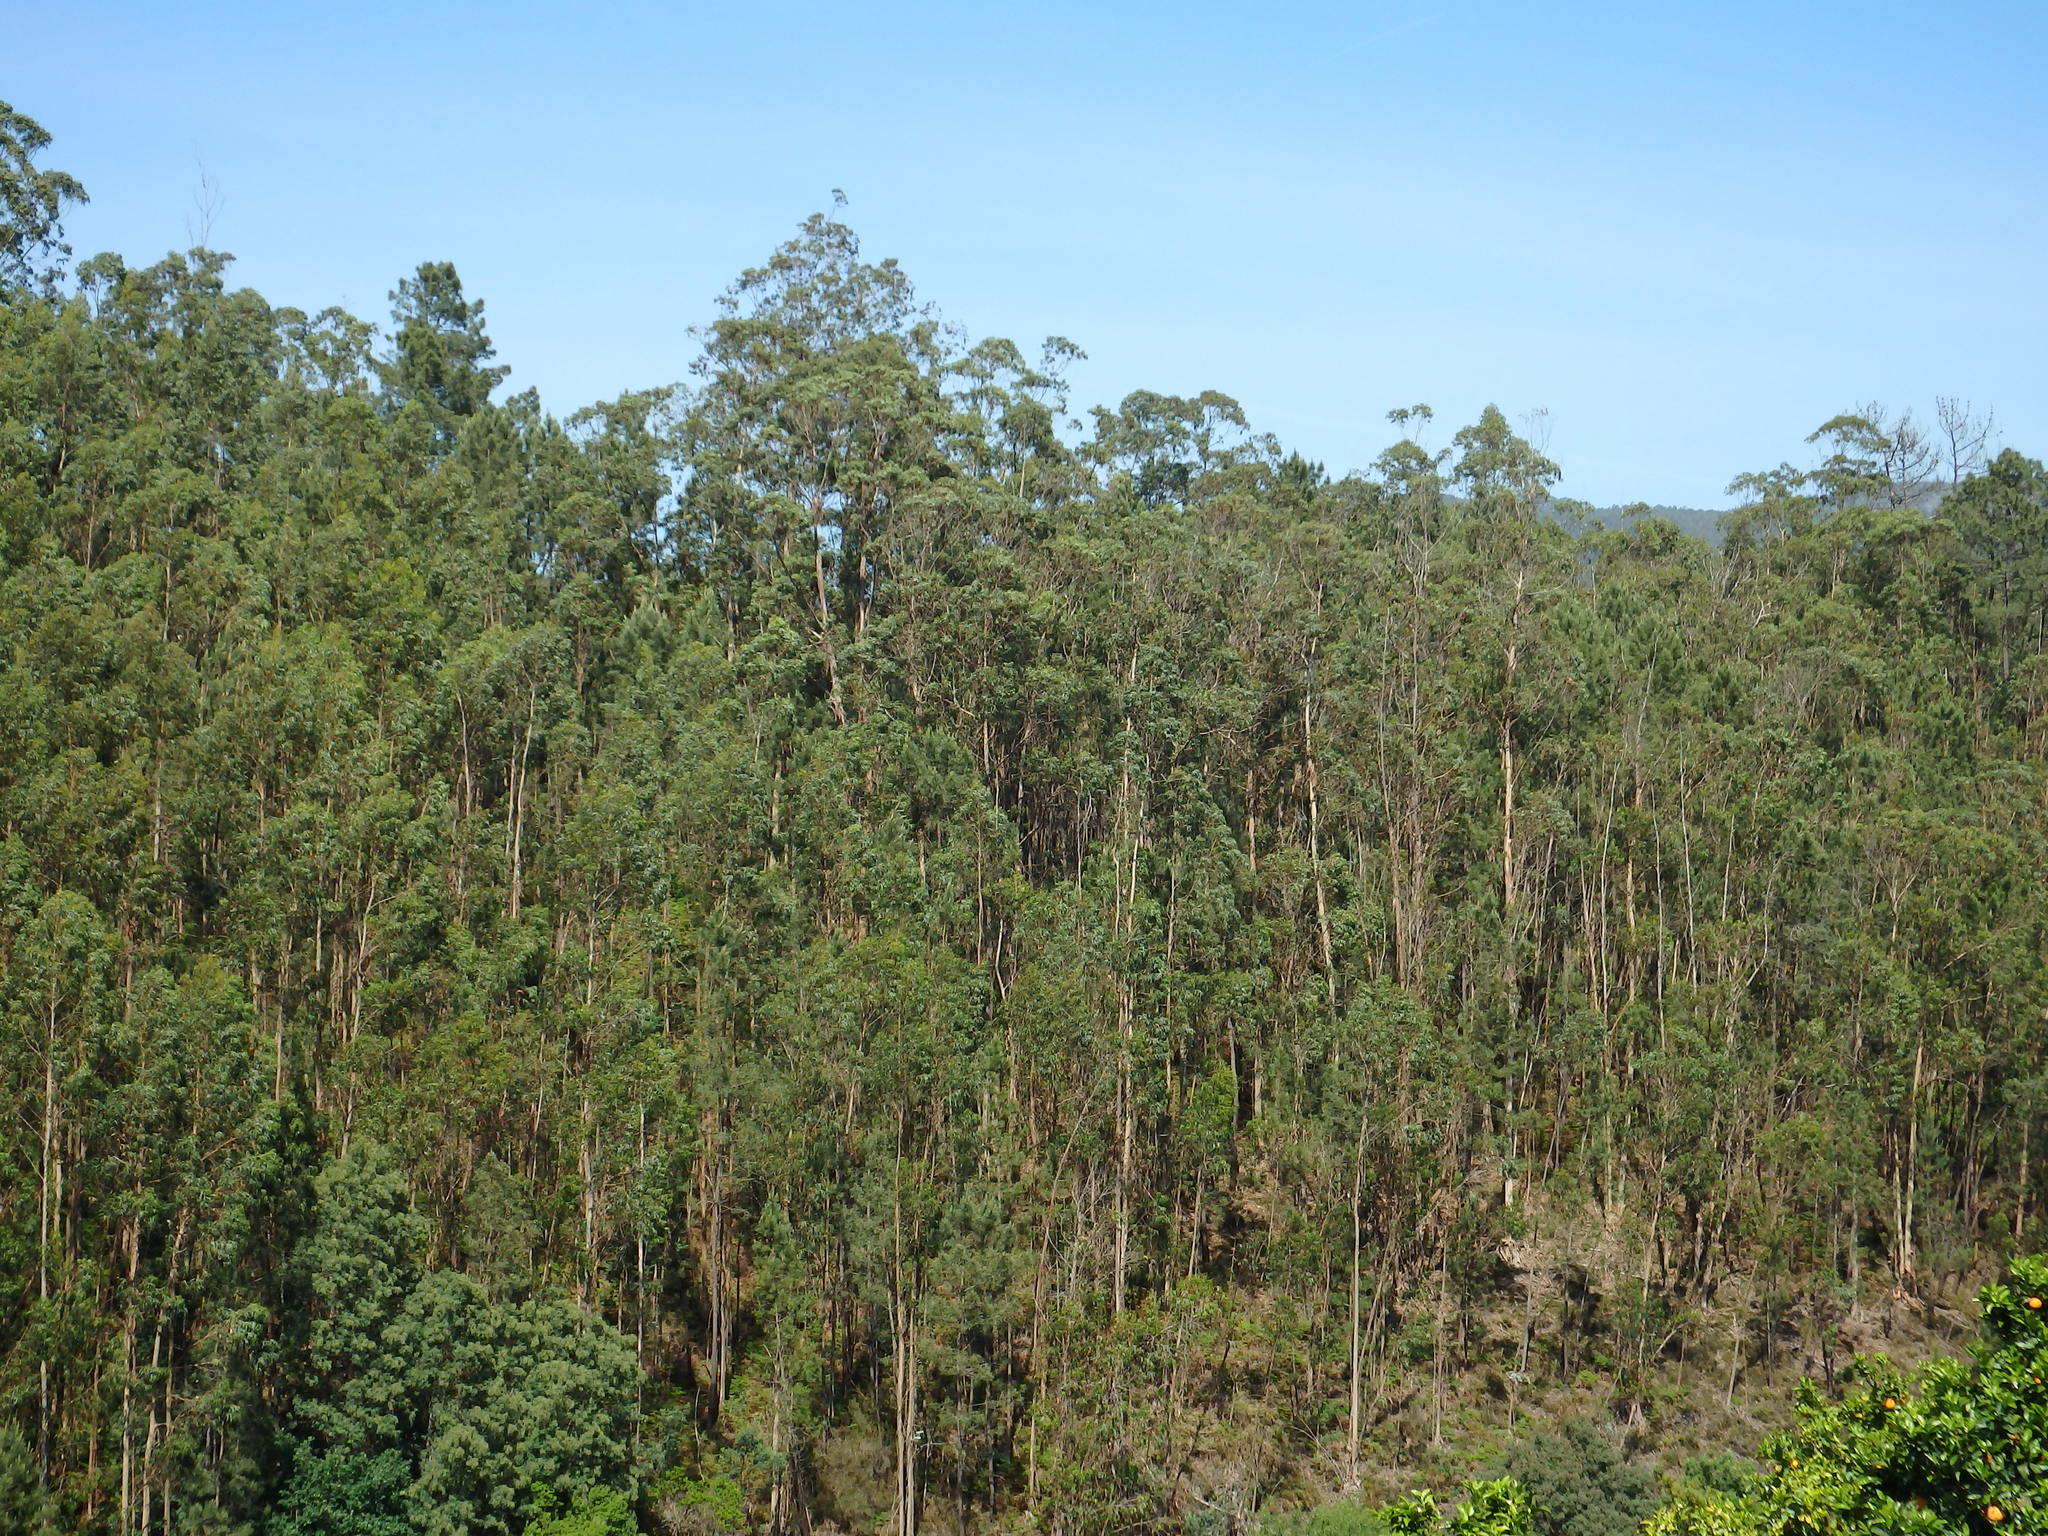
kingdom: Plantae
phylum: Tracheophyta
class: Magnoliopsida
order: Myrtales
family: Myrtaceae
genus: Eucalyptus
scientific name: Eucalyptus globulus
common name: Southern blue-gum
